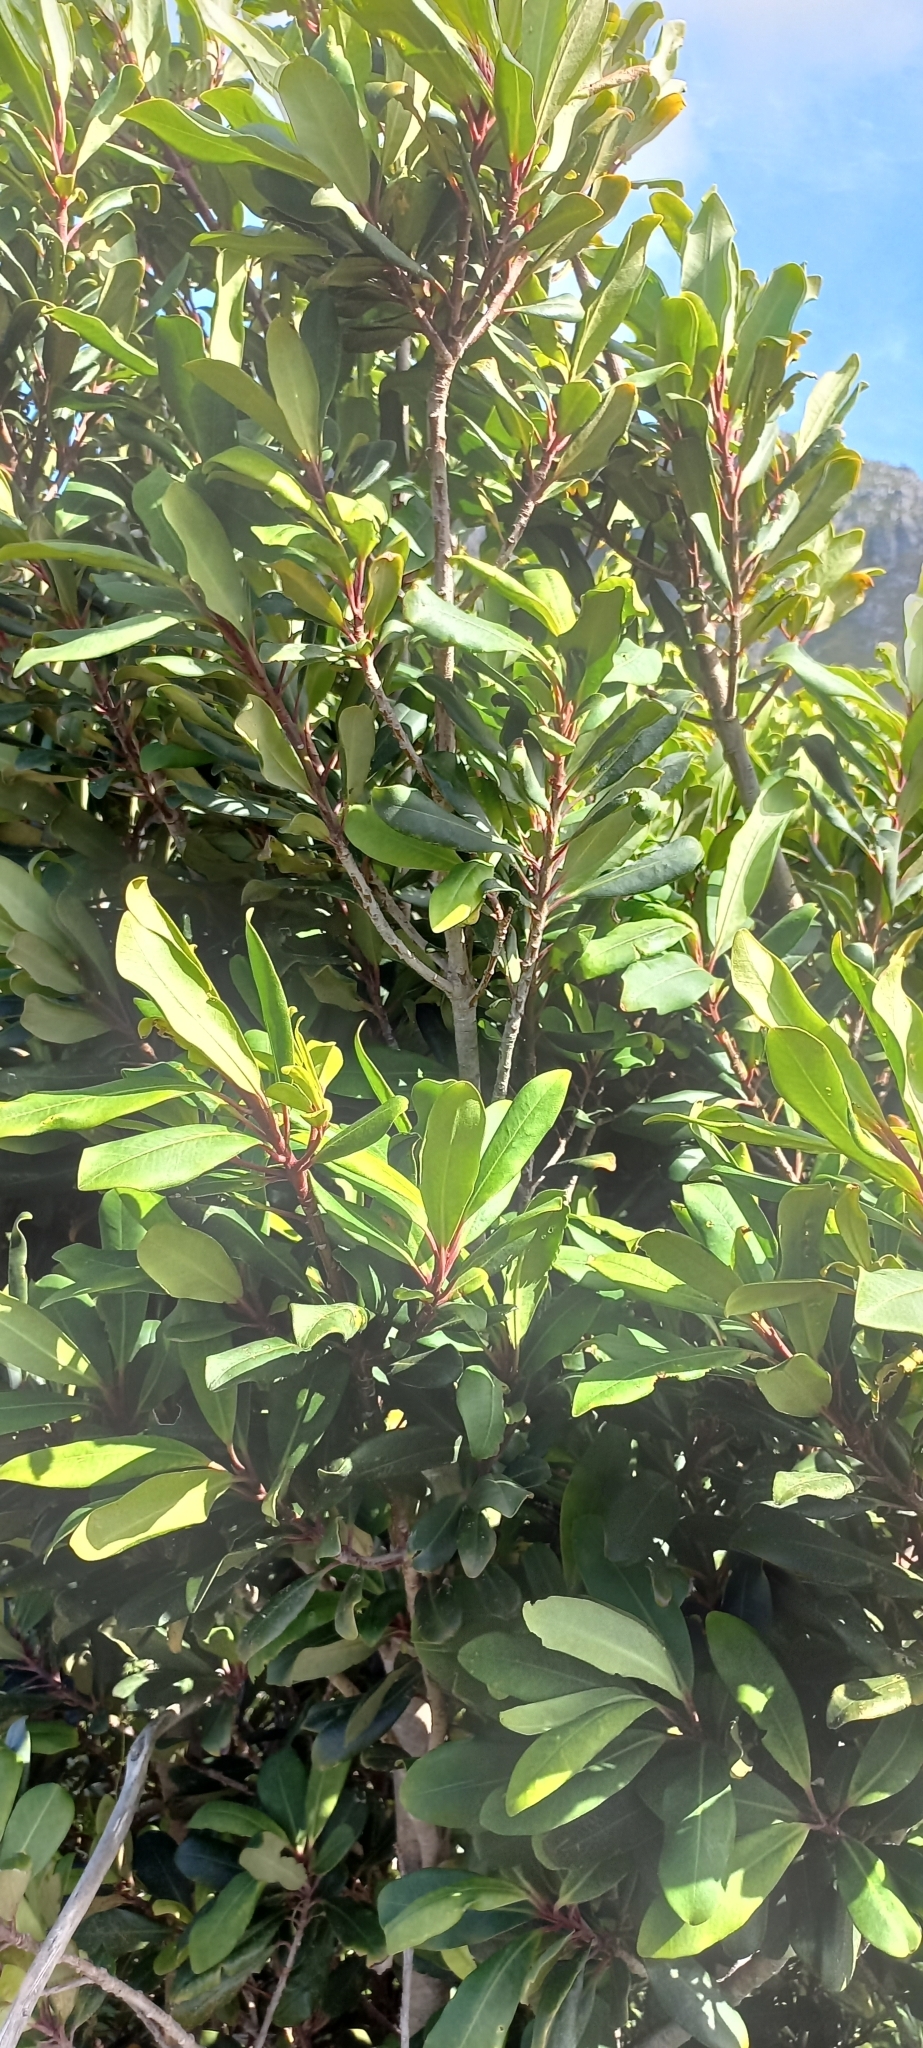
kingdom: Plantae
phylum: Tracheophyta
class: Magnoliopsida
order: Ericales
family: Primulaceae
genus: Myrsine
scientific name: Myrsine melanophloeos
